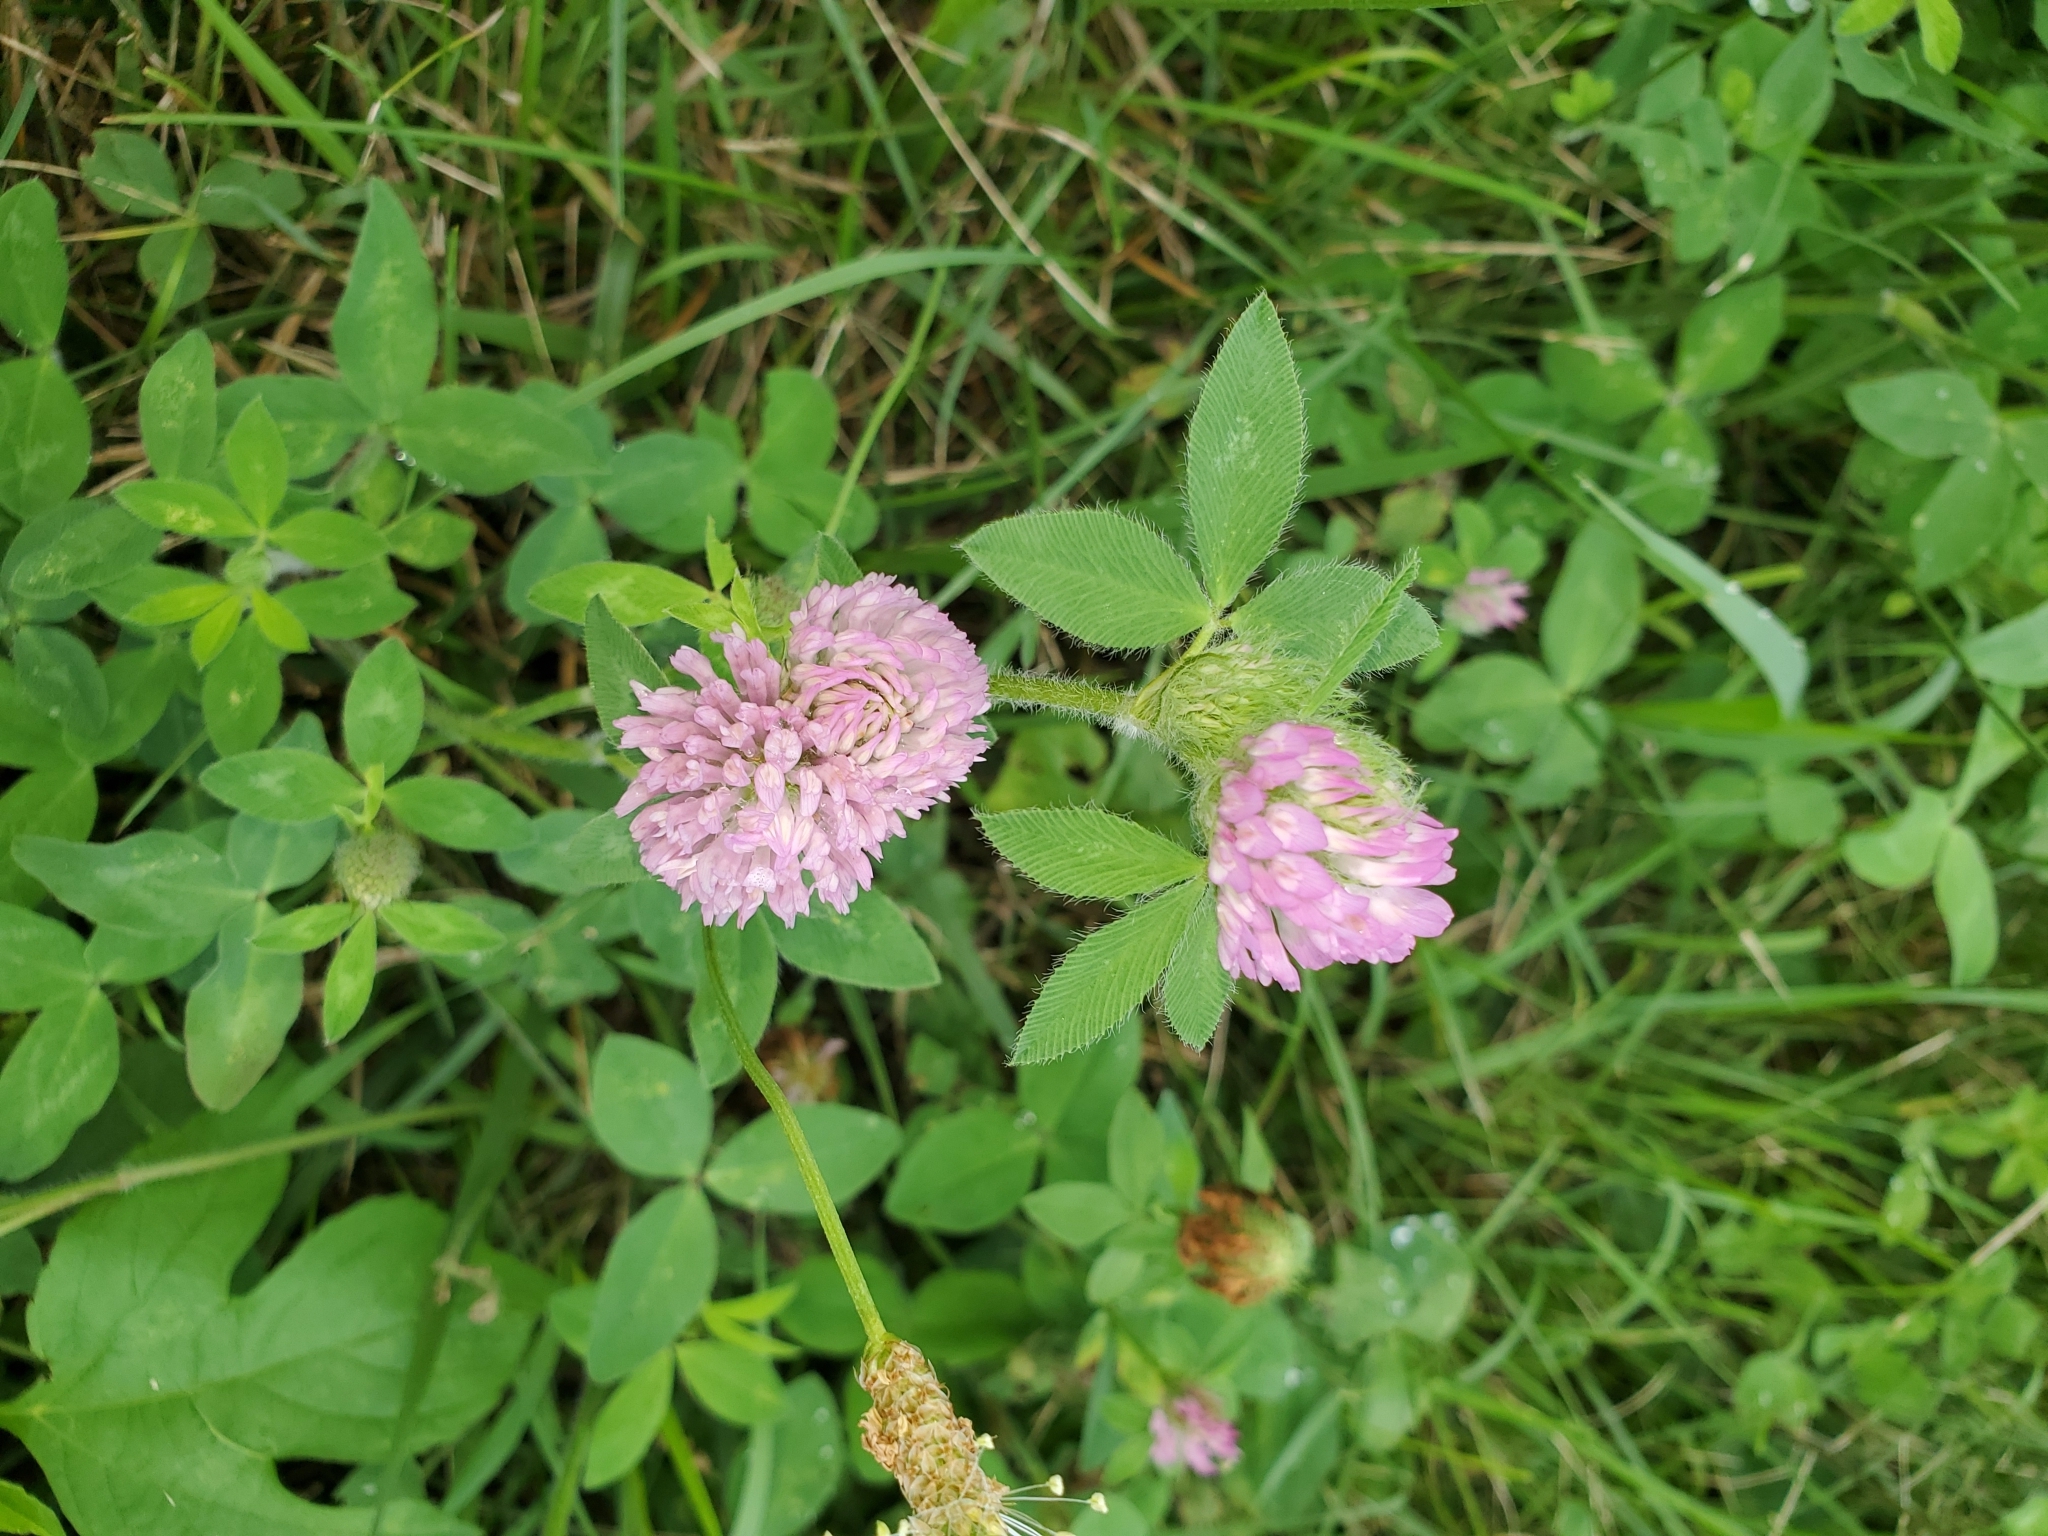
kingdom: Plantae
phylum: Tracheophyta
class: Magnoliopsida
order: Fabales
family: Fabaceae
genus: Trifolium
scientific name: Trifolium pratense
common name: Red clover
